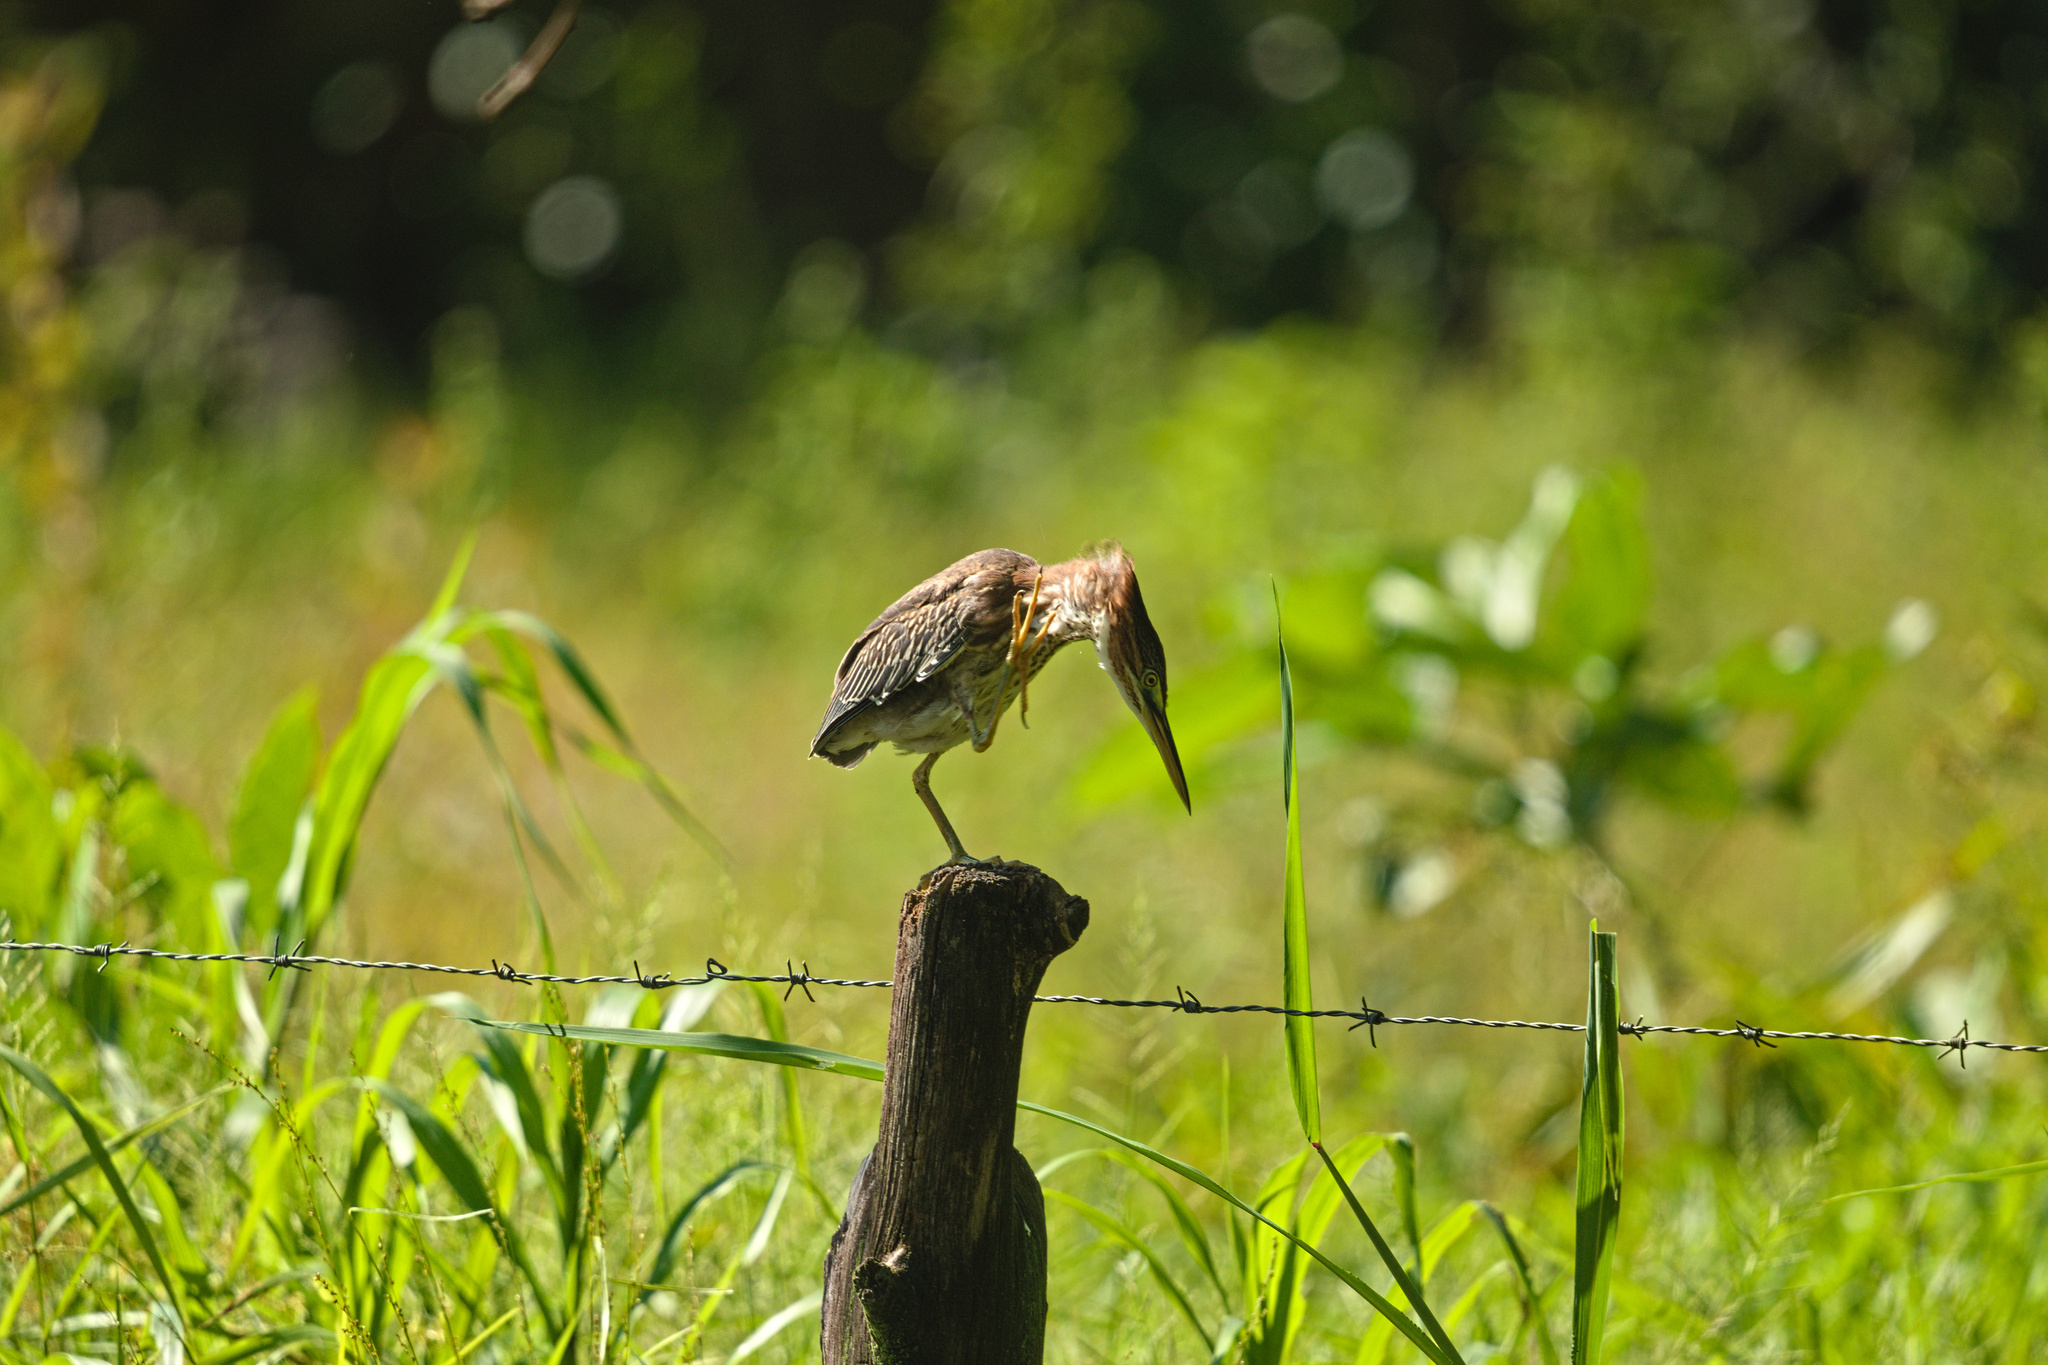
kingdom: Animalia
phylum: Chordata
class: Aves
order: Pelecaniformes
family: Ardeidae
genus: Butorides
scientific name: Butorides virescens
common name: Green heron
